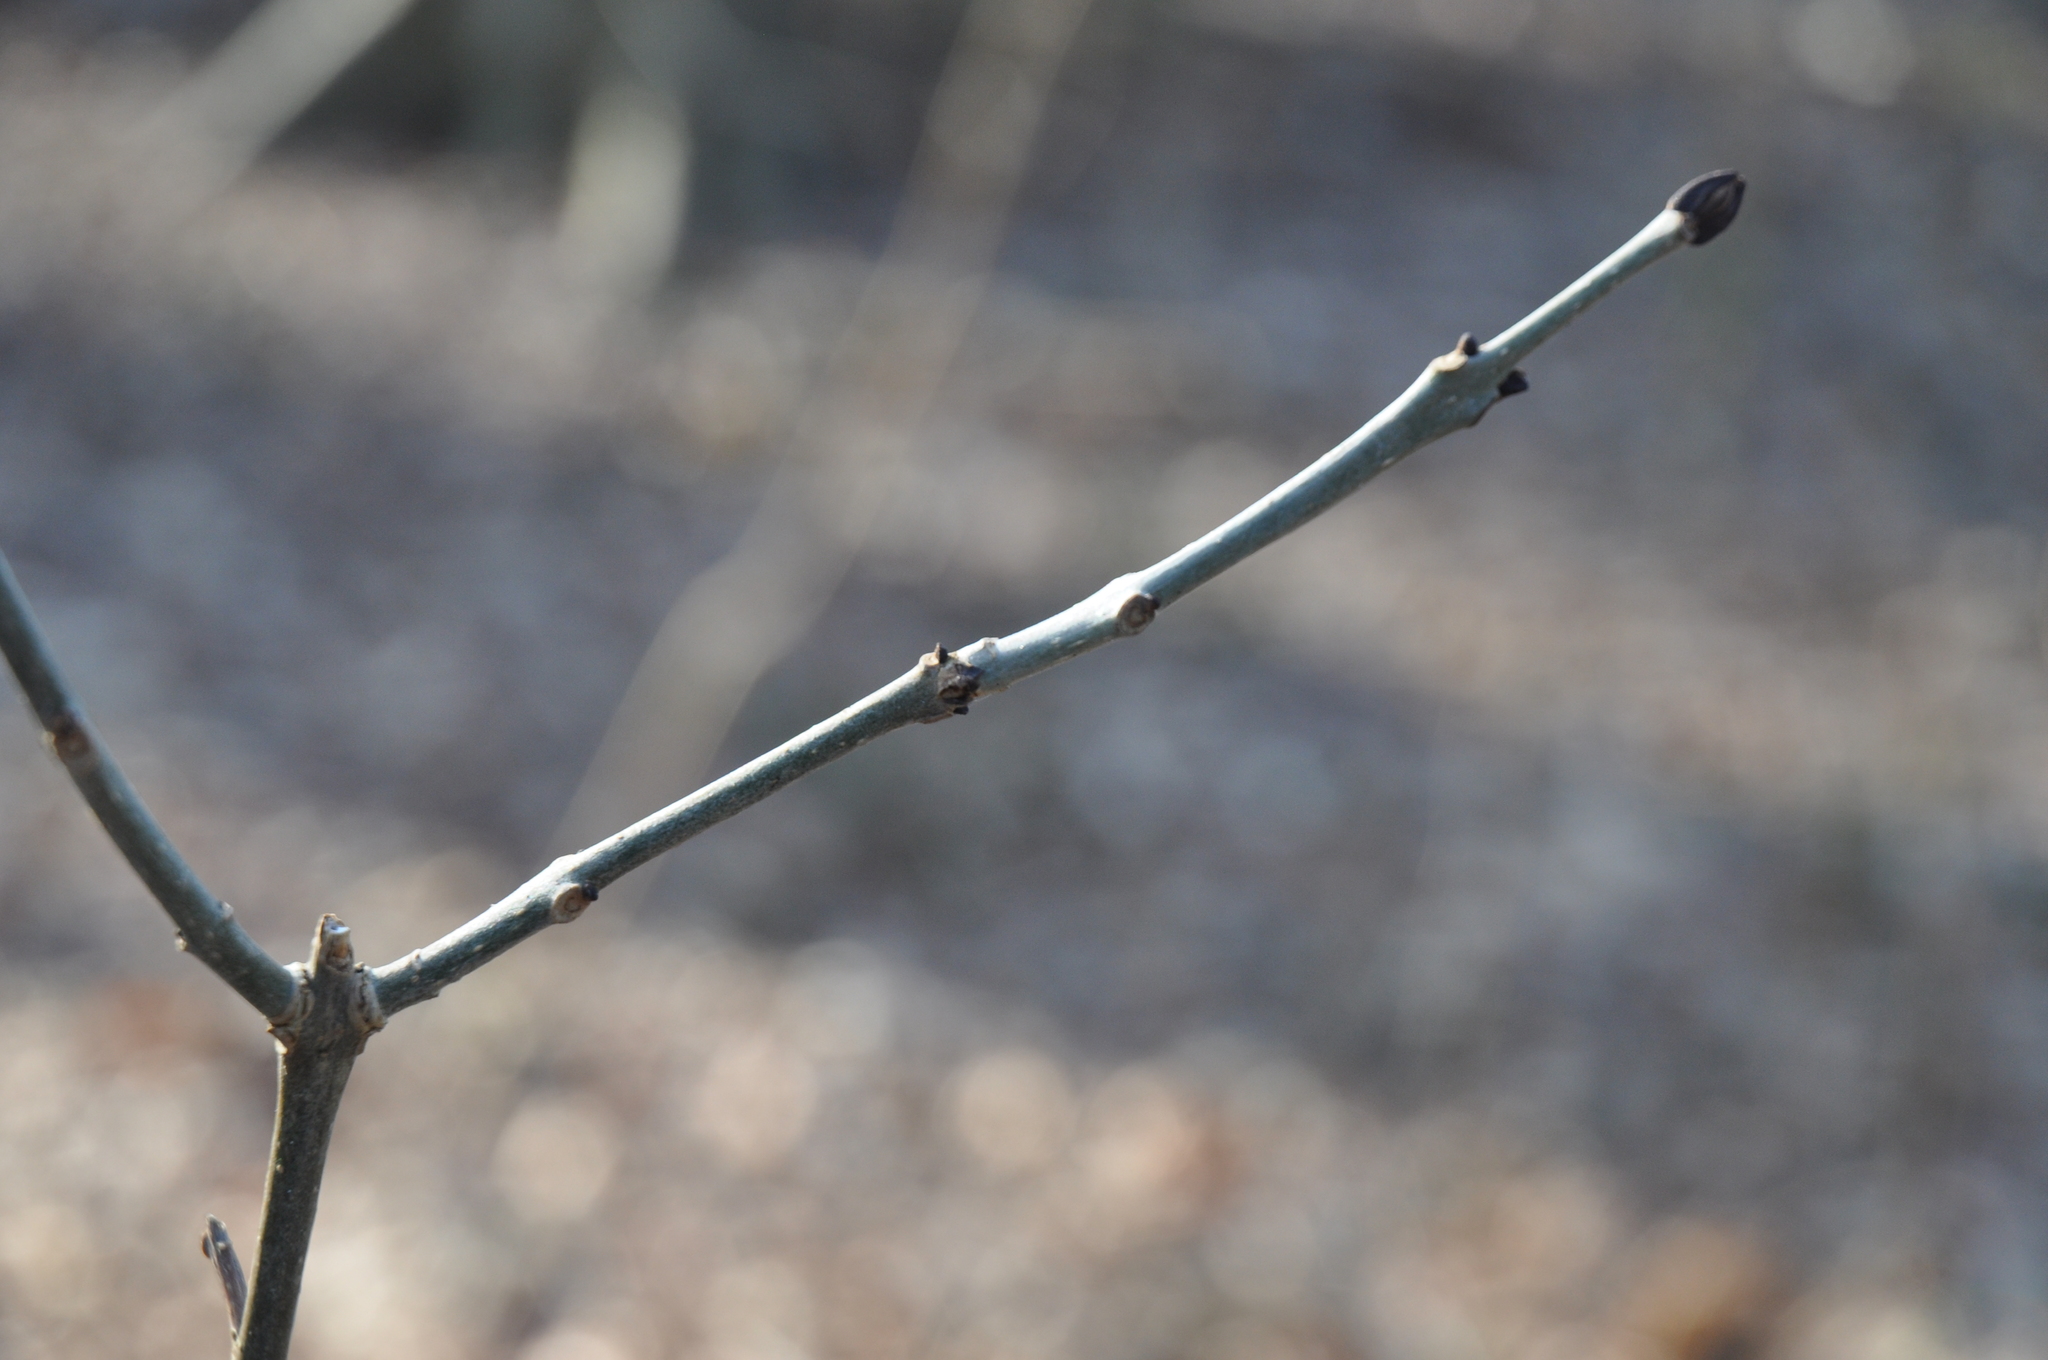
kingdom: Plantae
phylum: Tracheophyta
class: Magnoliopsida
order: Lamiales
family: Oleaceae
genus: Fraxinus
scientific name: Fraxinus excelsior
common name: European ash
